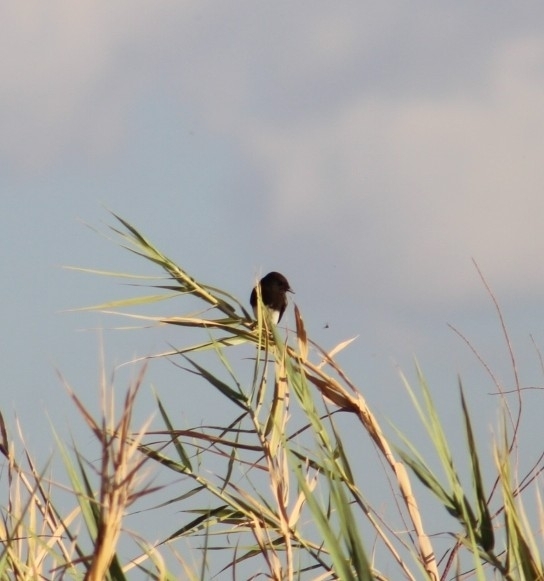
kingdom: Animalia
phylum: Chordata
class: Aves
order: Passeriformes
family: Tyrannidae
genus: Sayornis
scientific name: Sayornis nigricans
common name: Black phoebe
